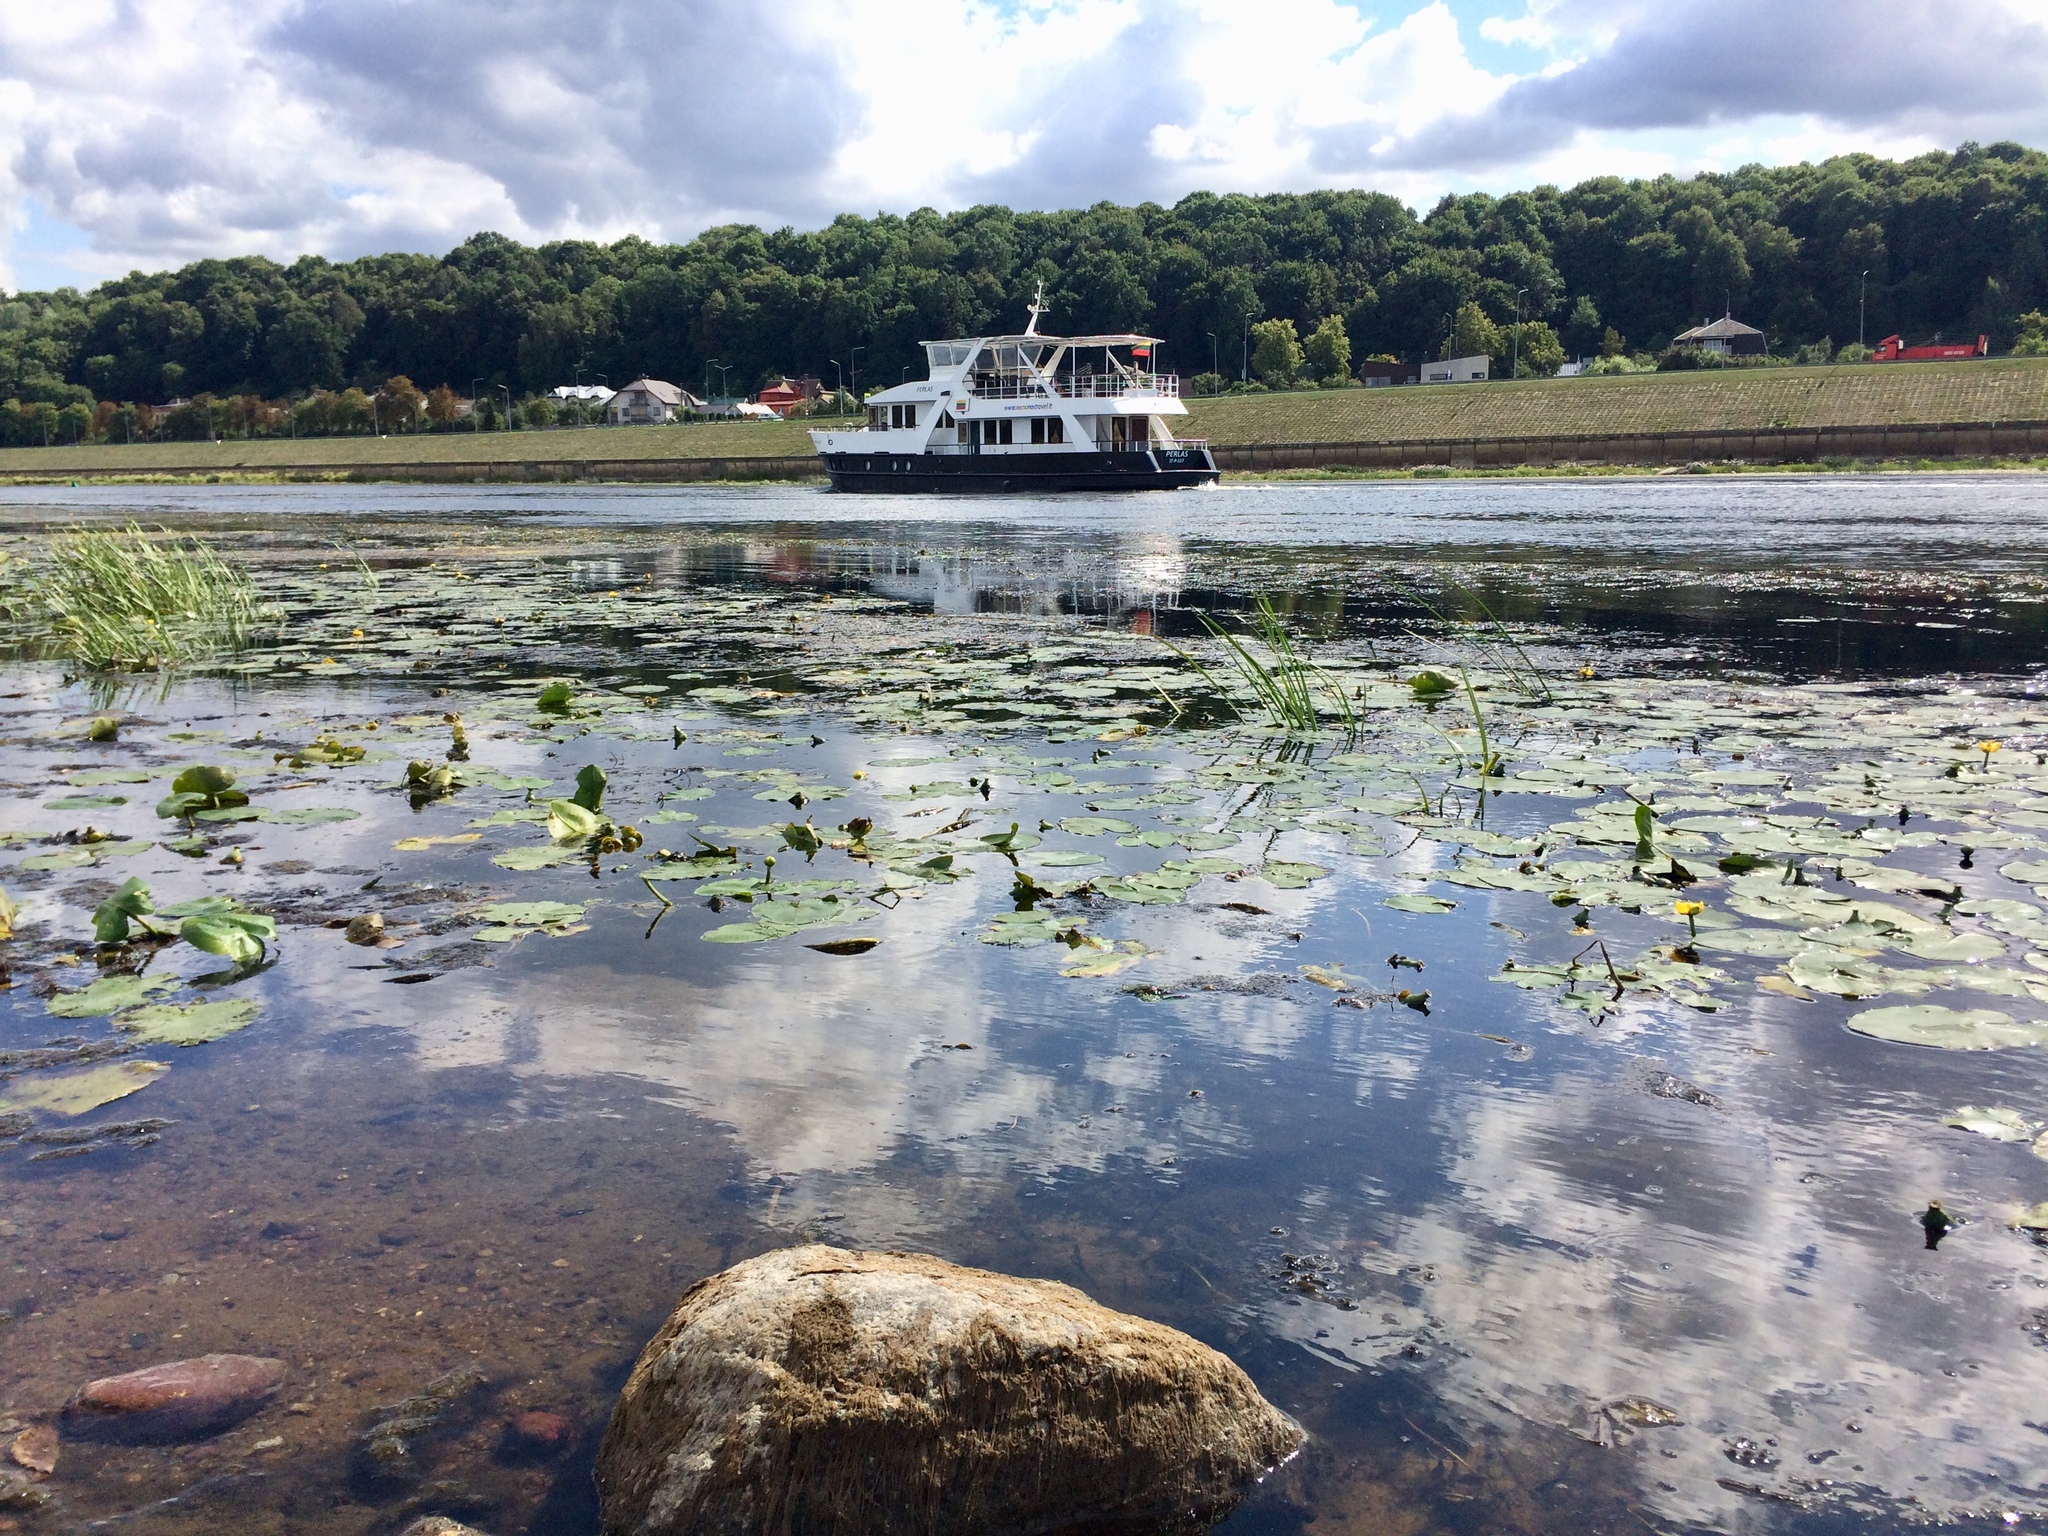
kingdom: Plantae
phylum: Tracheophyta
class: Magnoliopsida
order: Nymphaeales
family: Nymphaeaceae
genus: Nuphar
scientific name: Nuphar lutea
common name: Yellow water-lily
